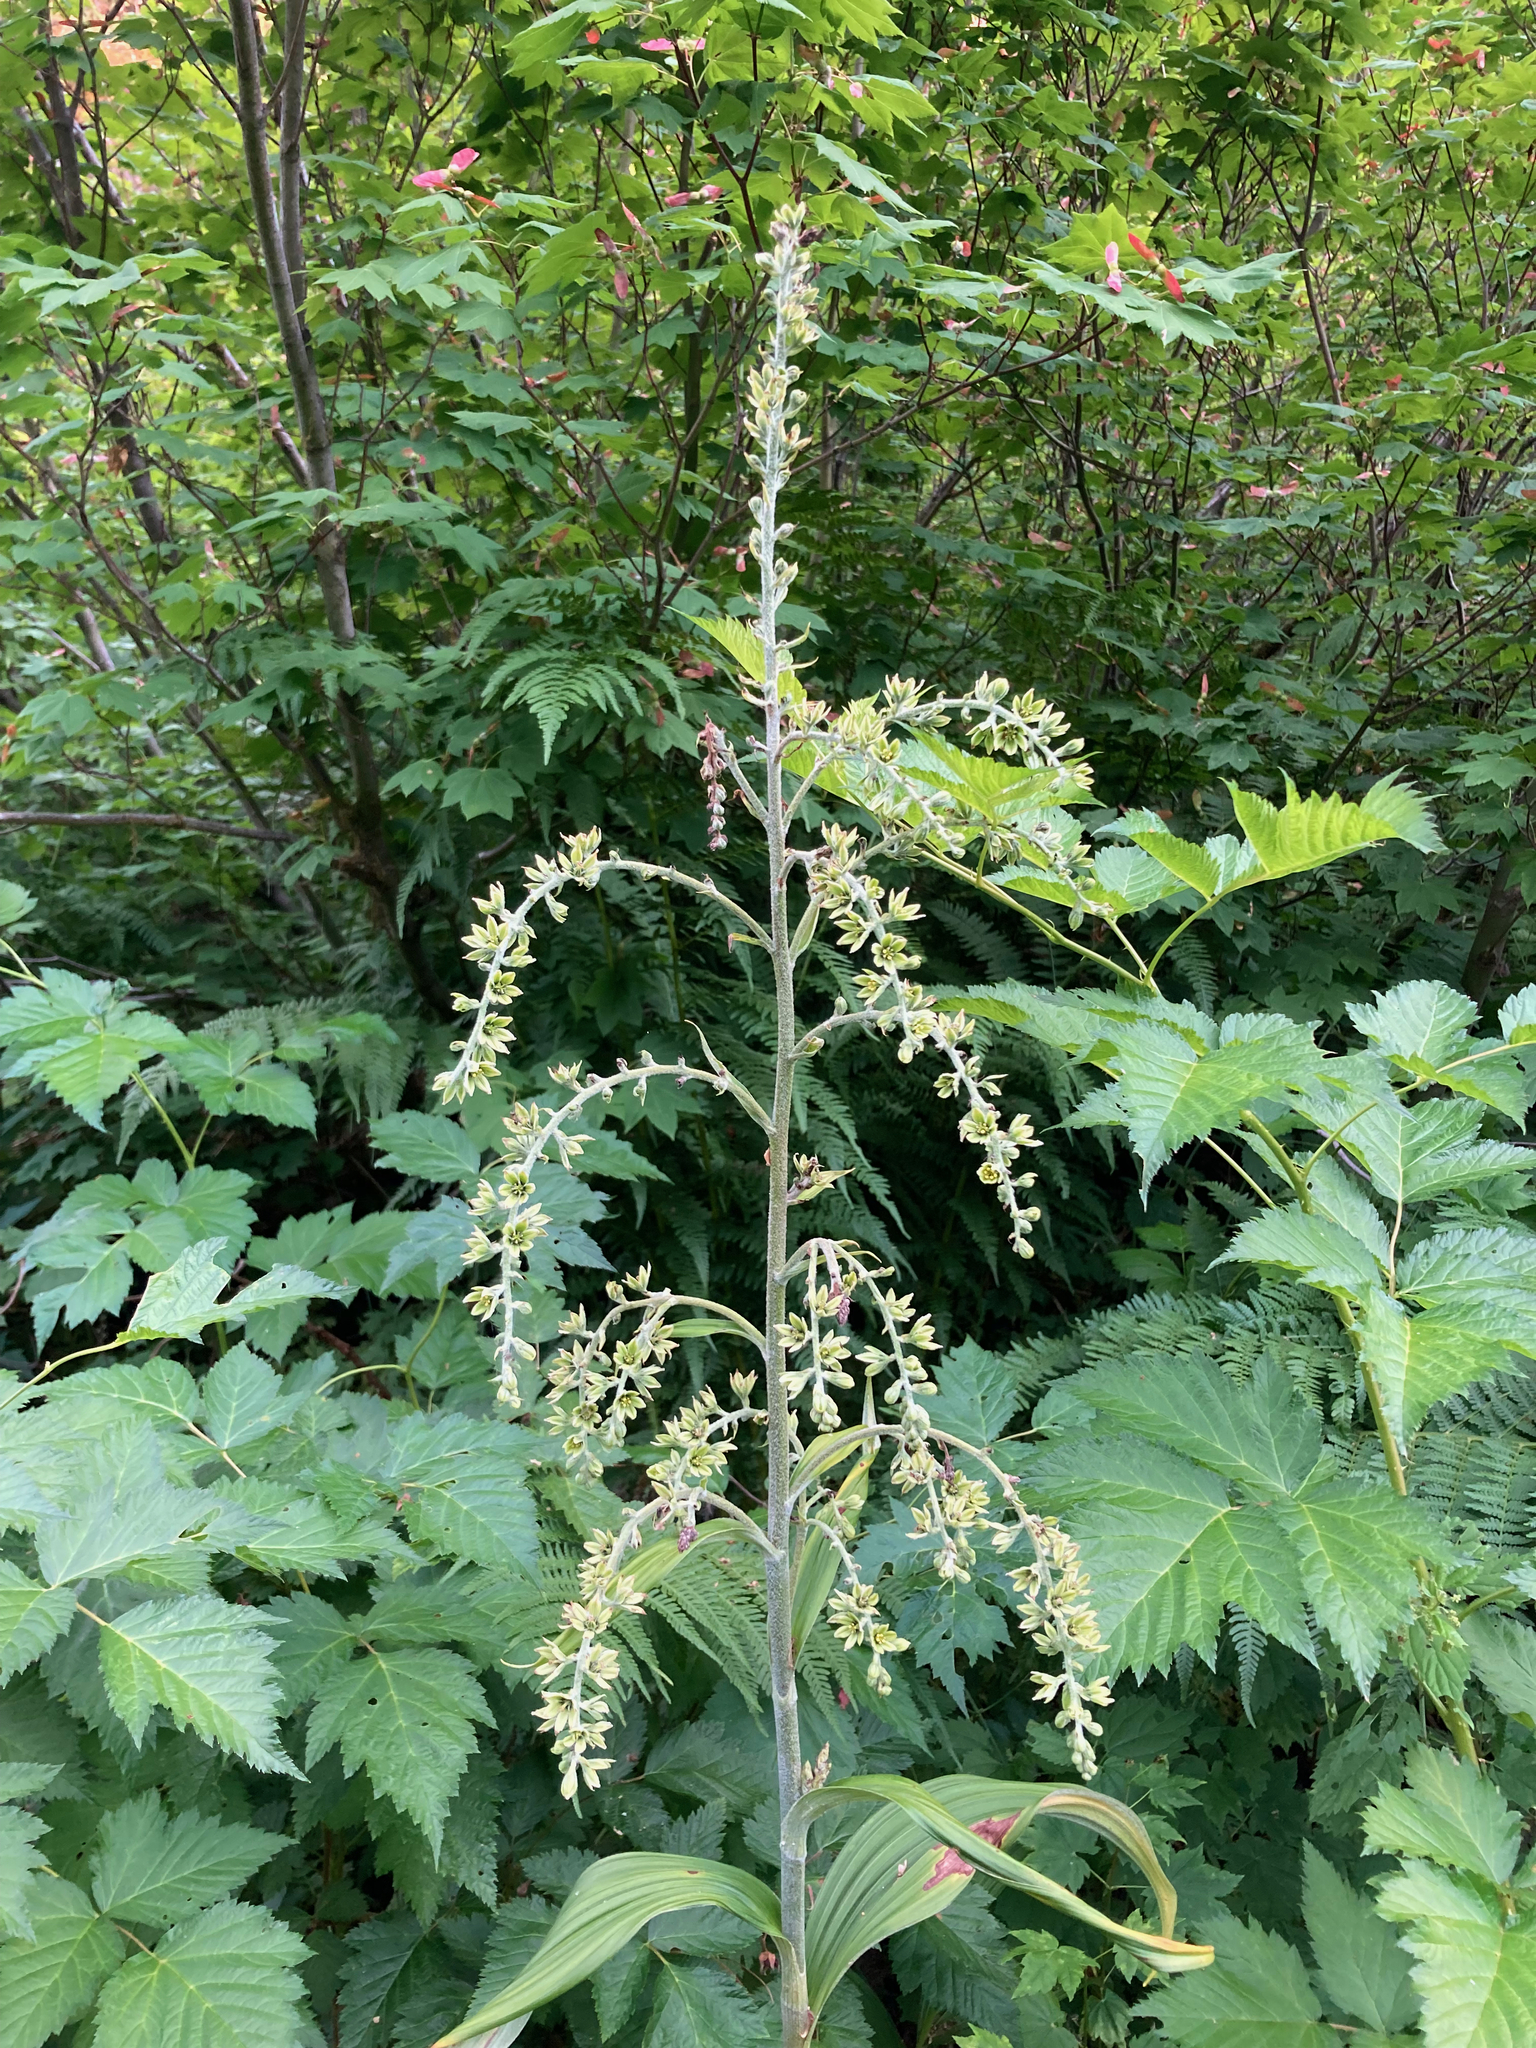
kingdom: Plantae
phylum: Tracheophyta
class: Liliopsida
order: Liliales
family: Melanthiaceae
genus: Veratrum
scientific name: Veratrum viride
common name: American false hellebore
